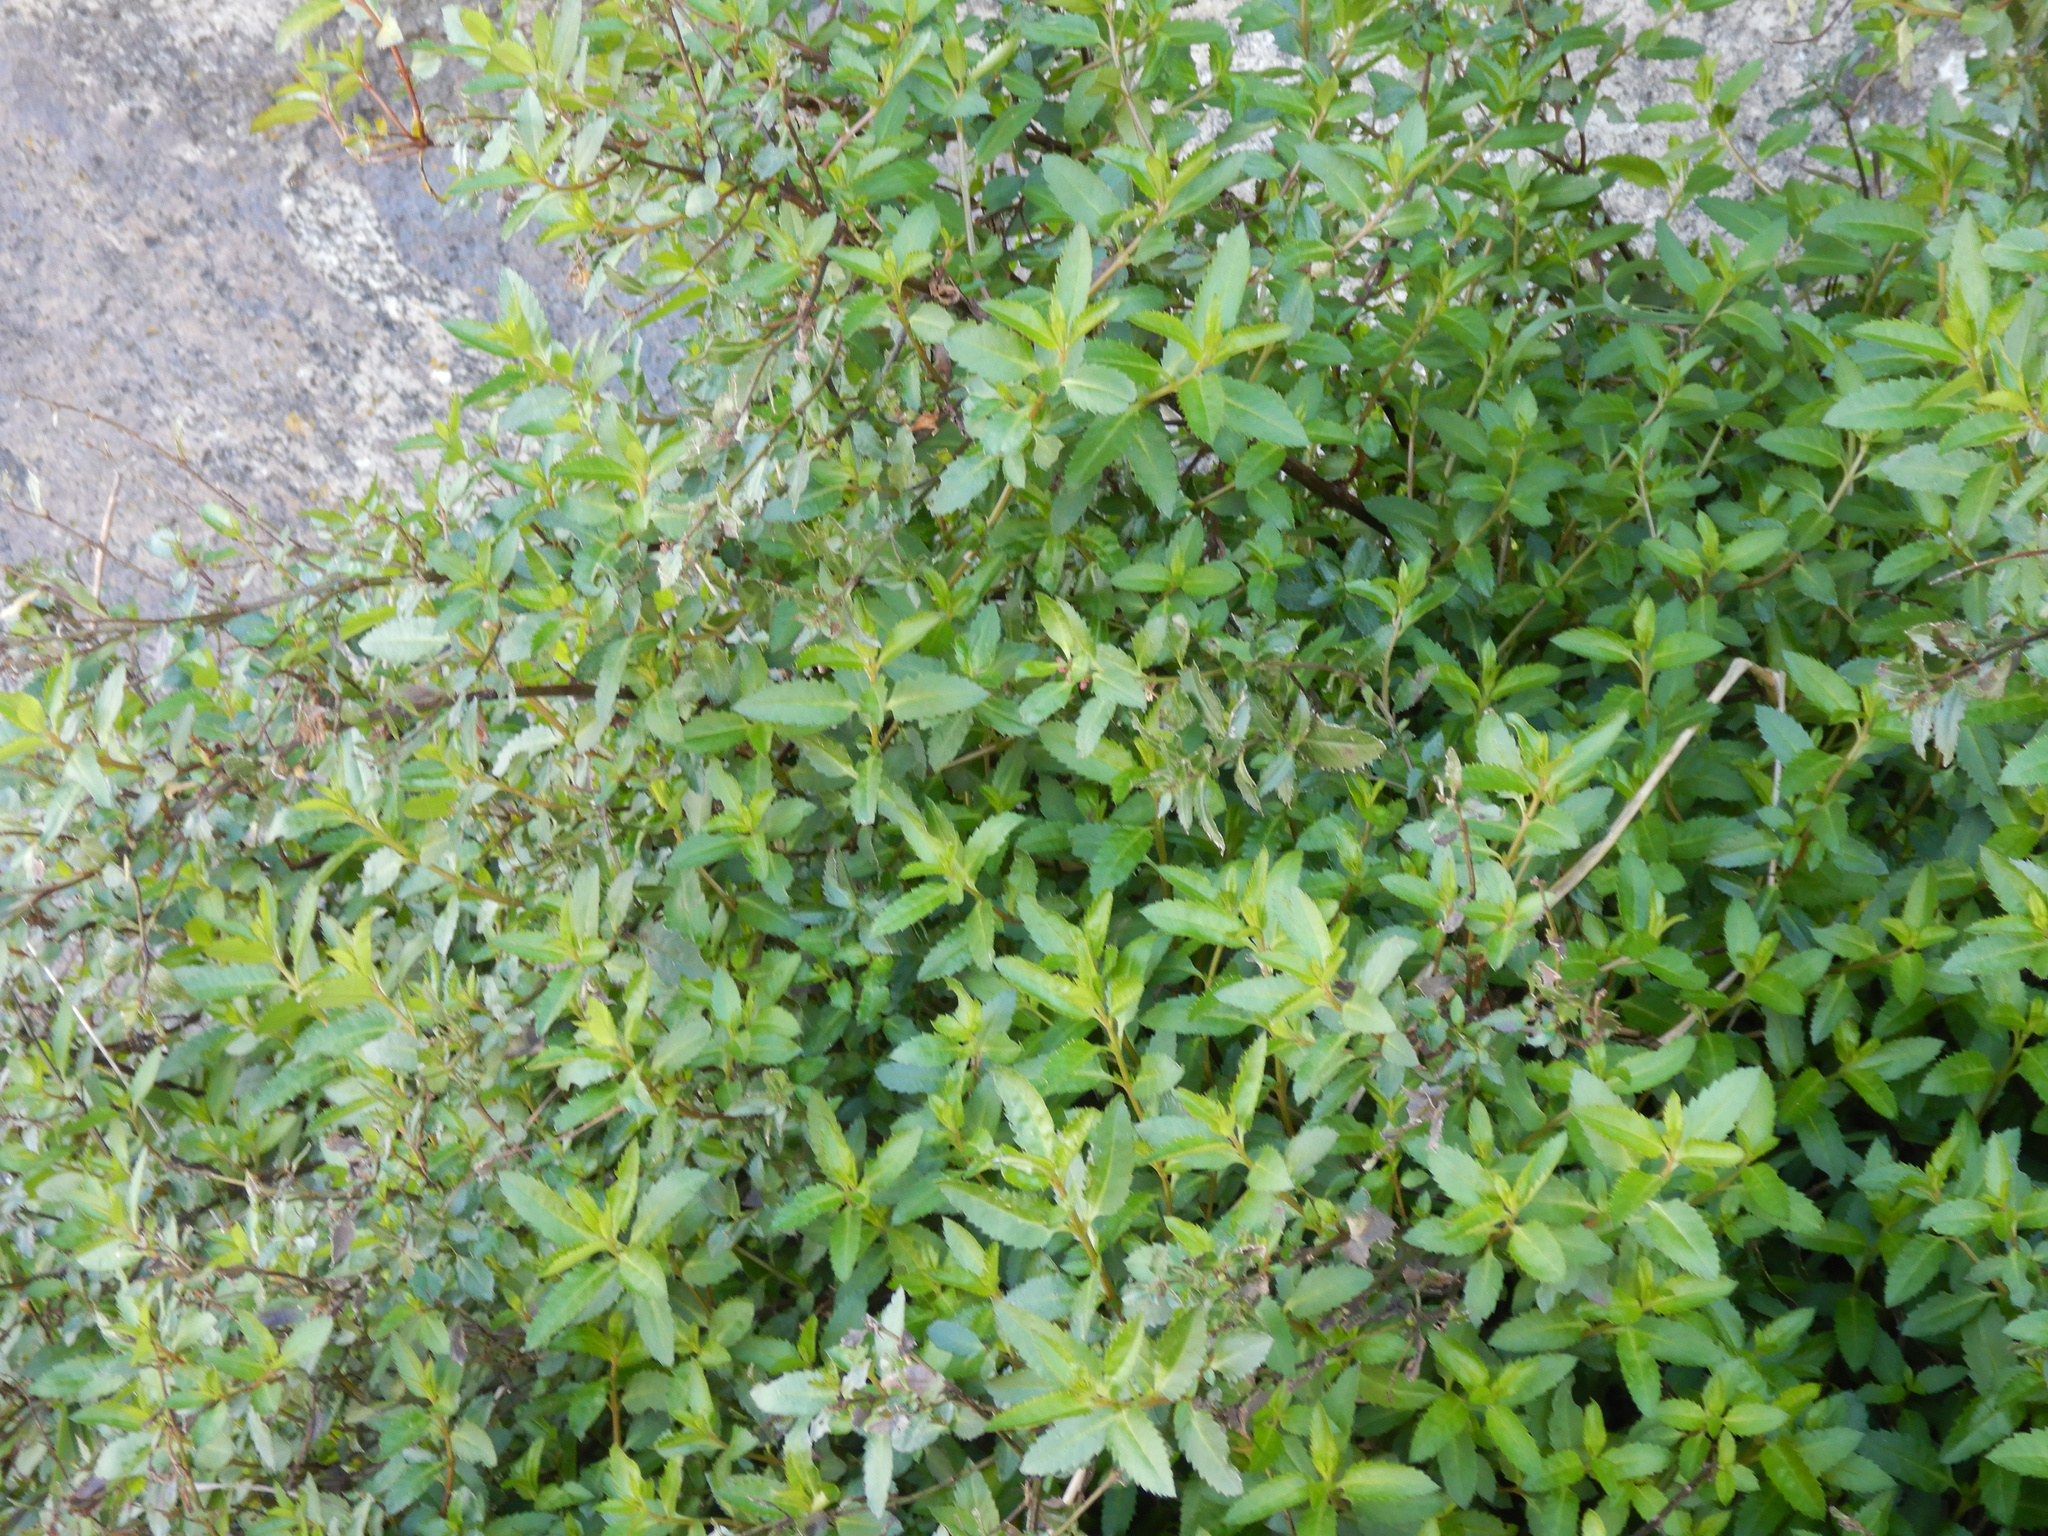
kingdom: Plantae
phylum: Tracheophyta
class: Magnoliopsida
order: Saxifragales
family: Haloragaceae
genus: Haloragis
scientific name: Haloragis erecta
